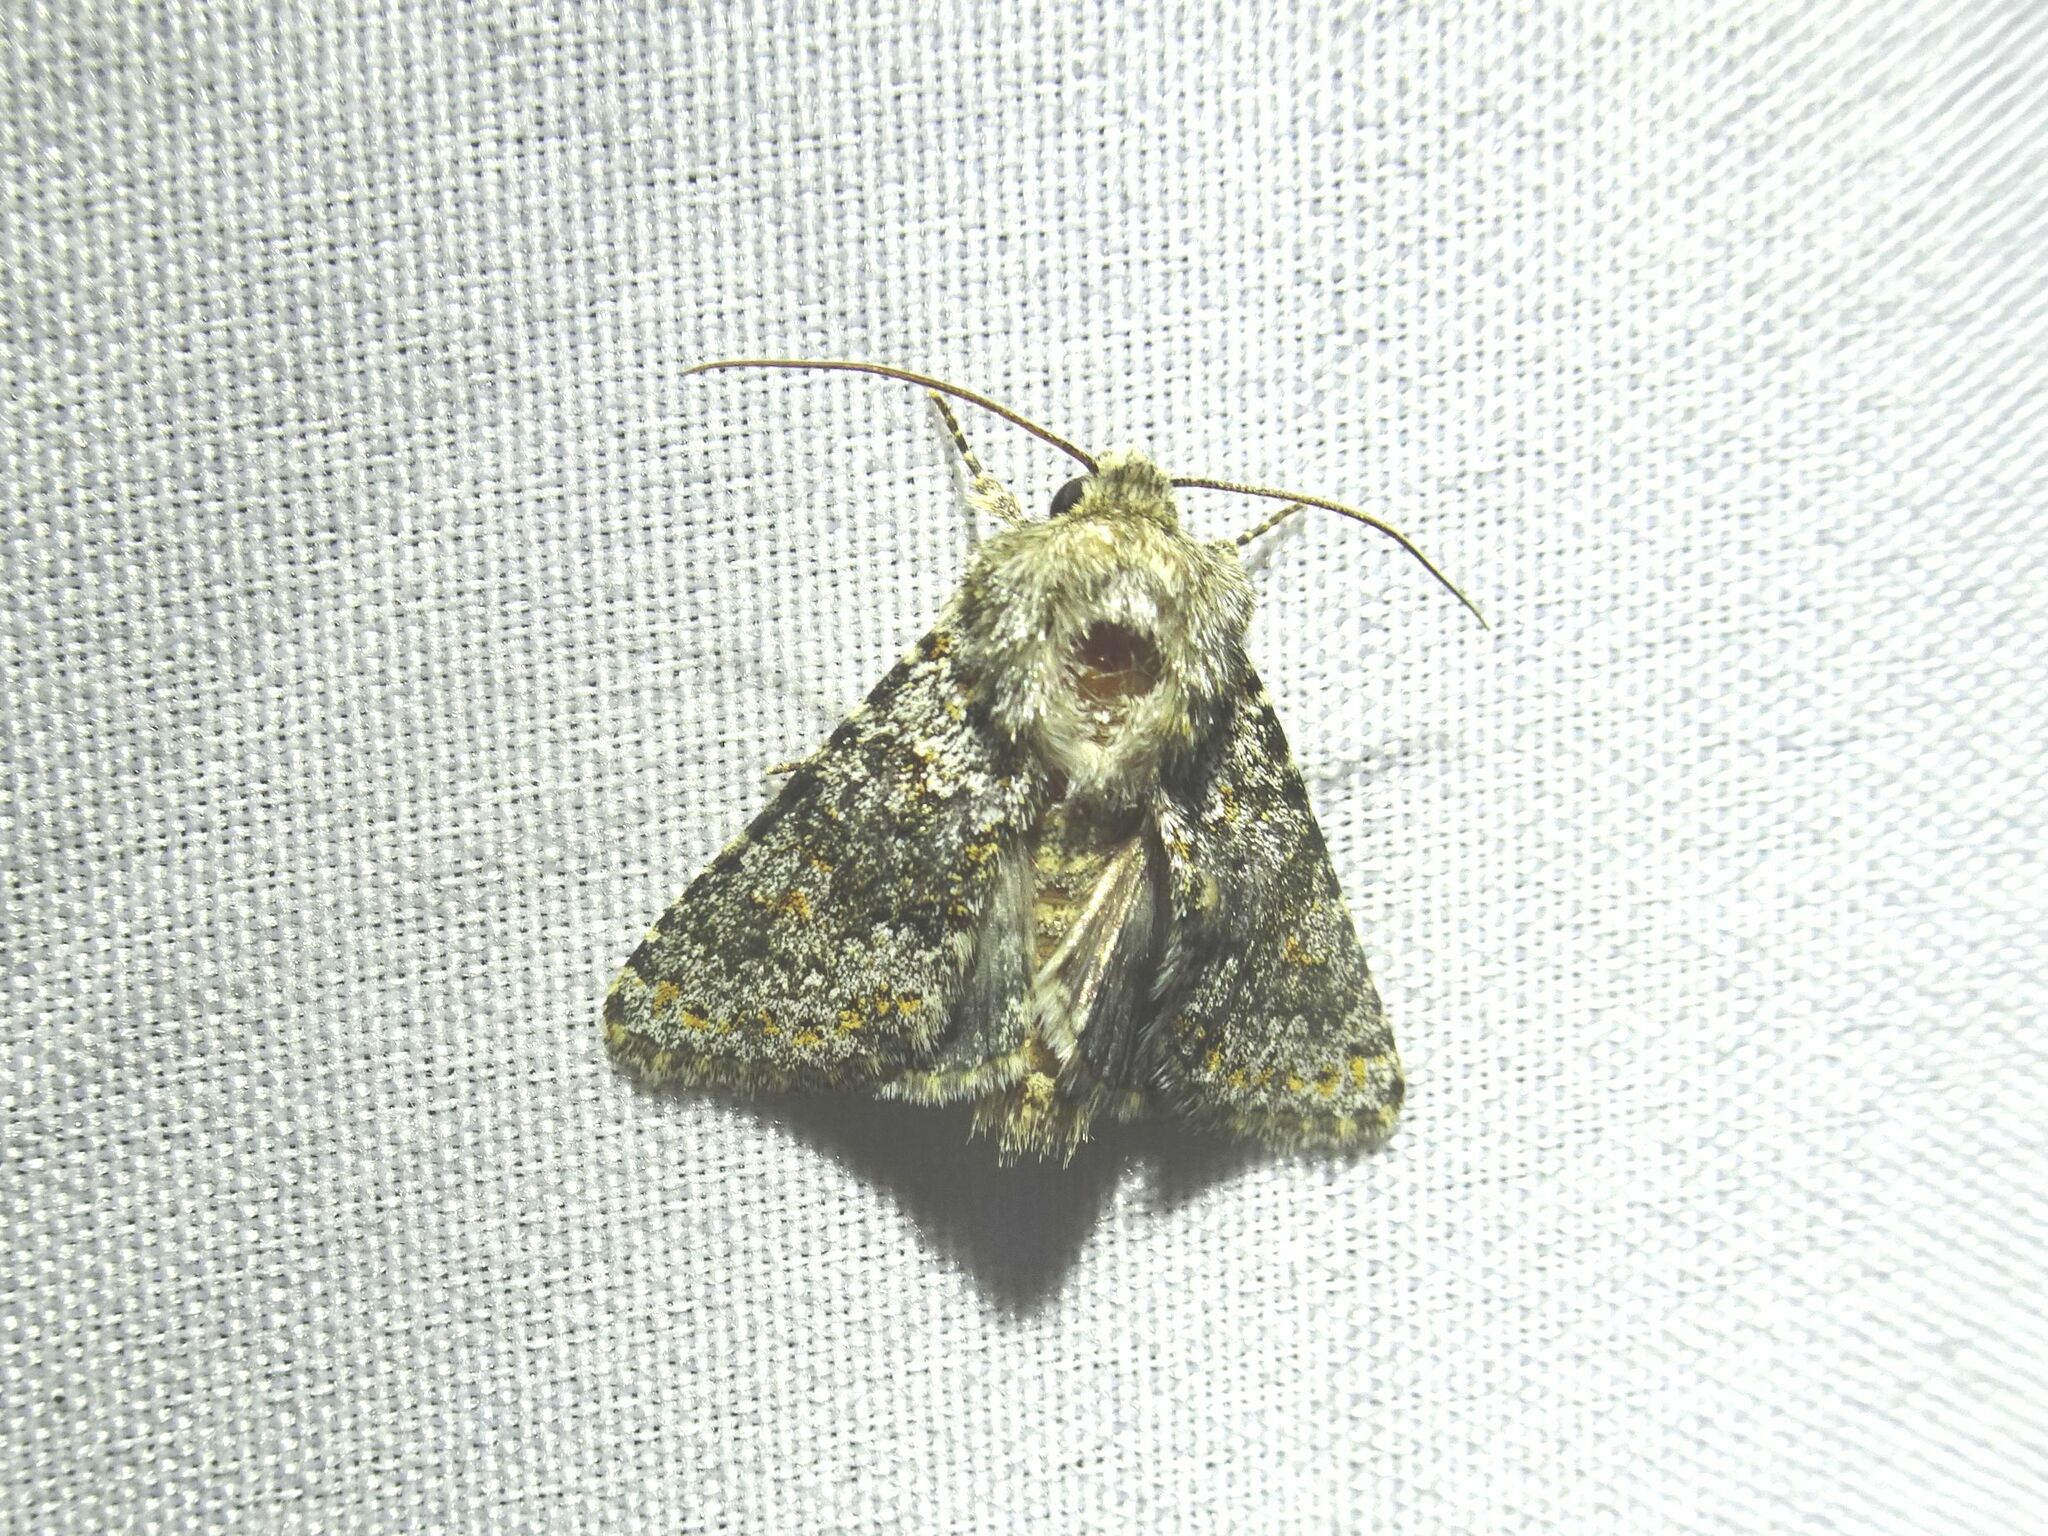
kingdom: Animalia
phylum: Arthropoda
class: Insecta
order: Lepidoptera
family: Noctuidae
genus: Hecatera
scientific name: Hecatera dysodea
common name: Small ranunculus
